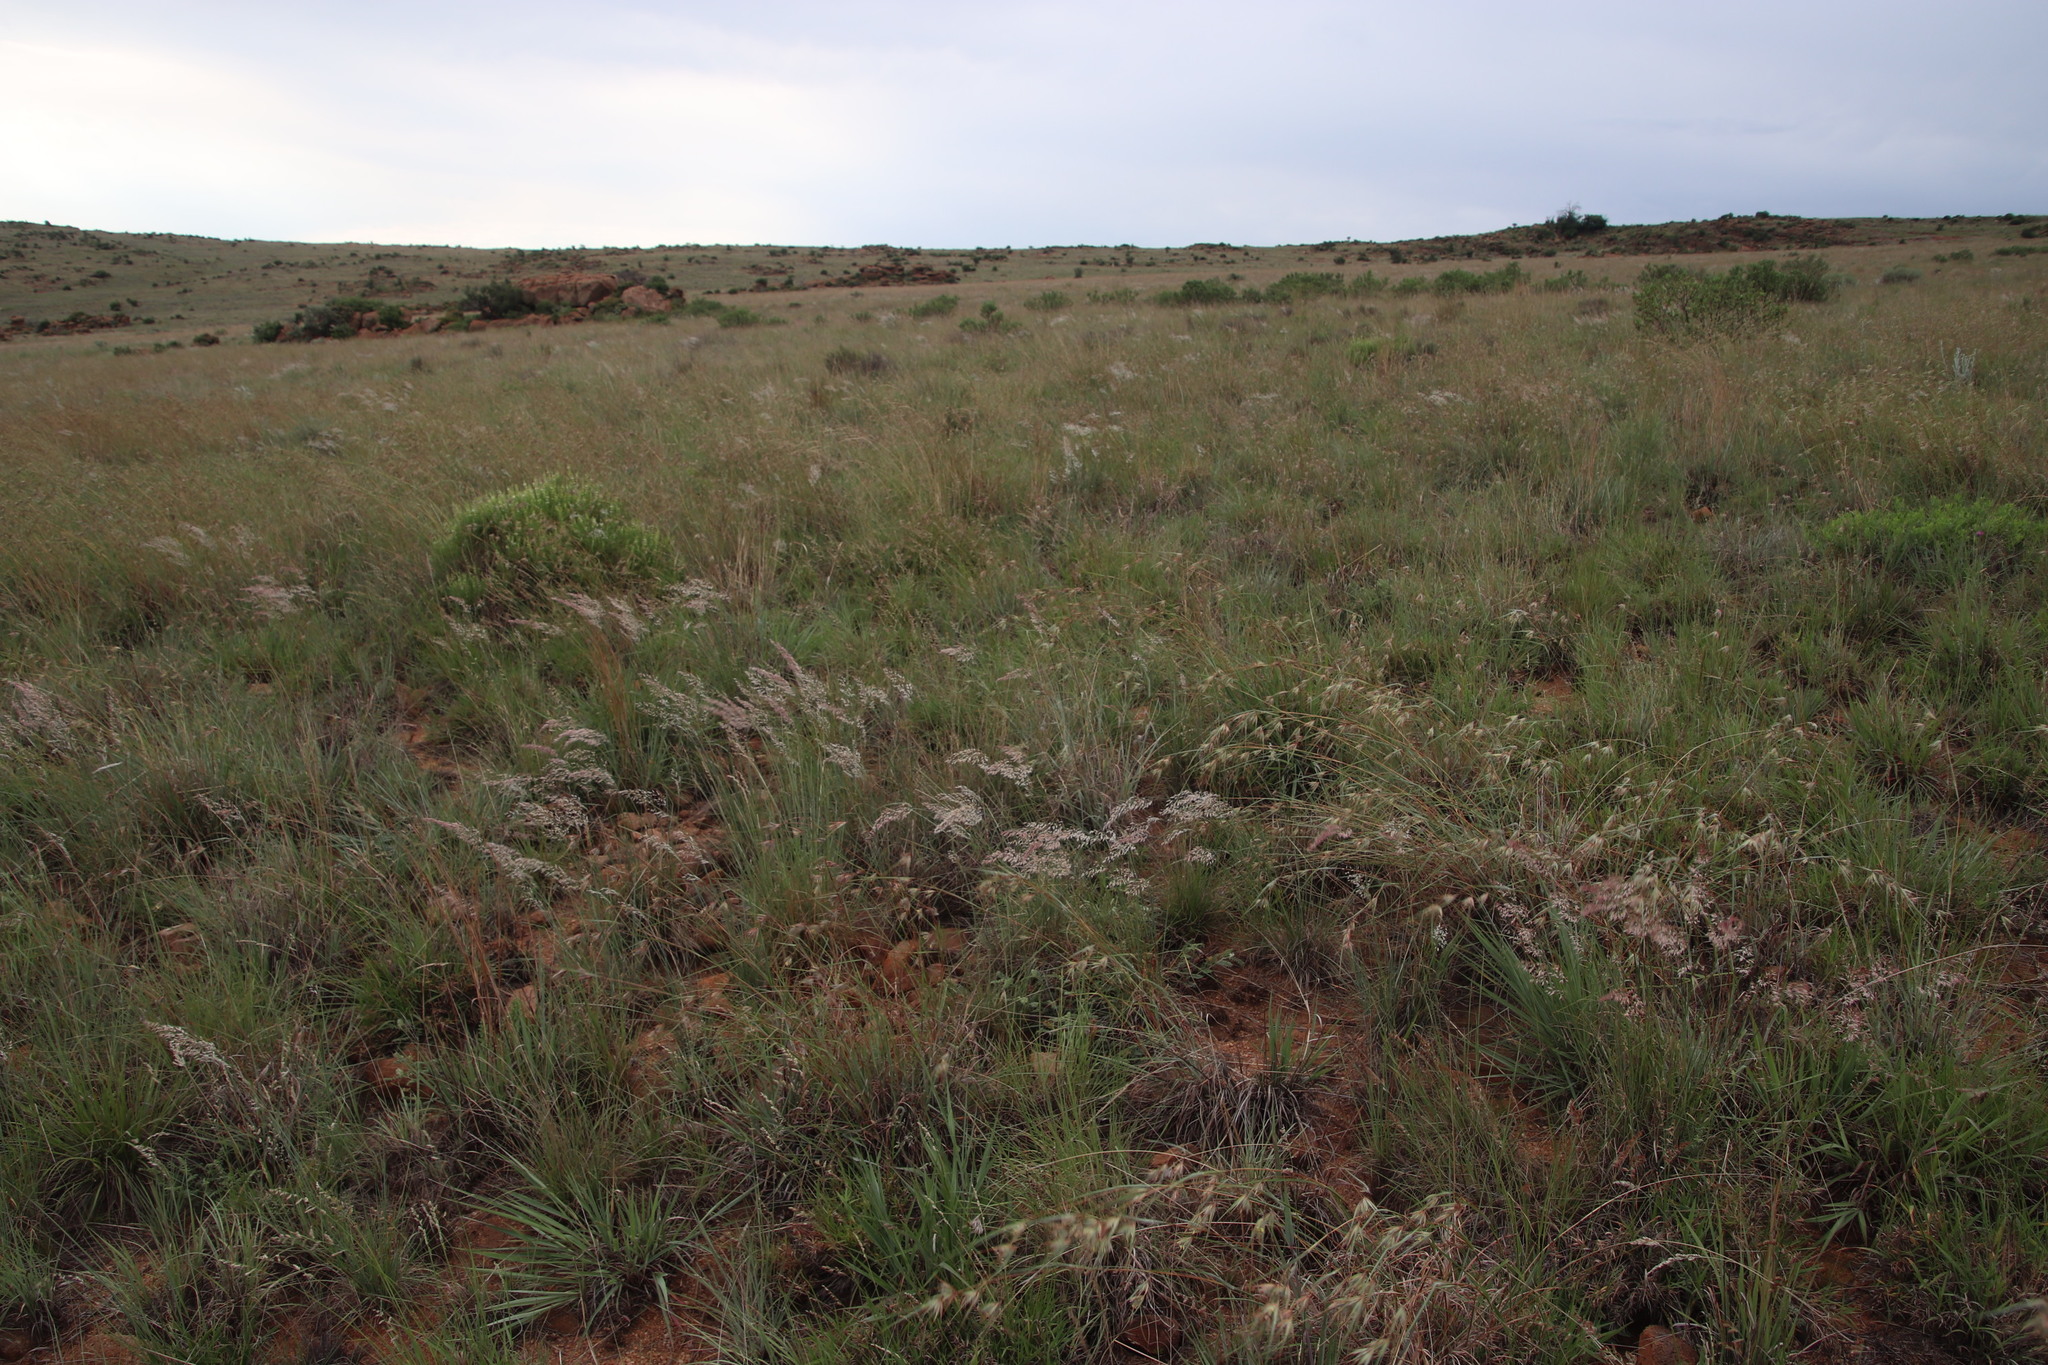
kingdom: Plantae
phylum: Tracheophyta
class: Liliopsida
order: Poales
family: Poaceae
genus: Melinis
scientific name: Melinis nerviglumis
